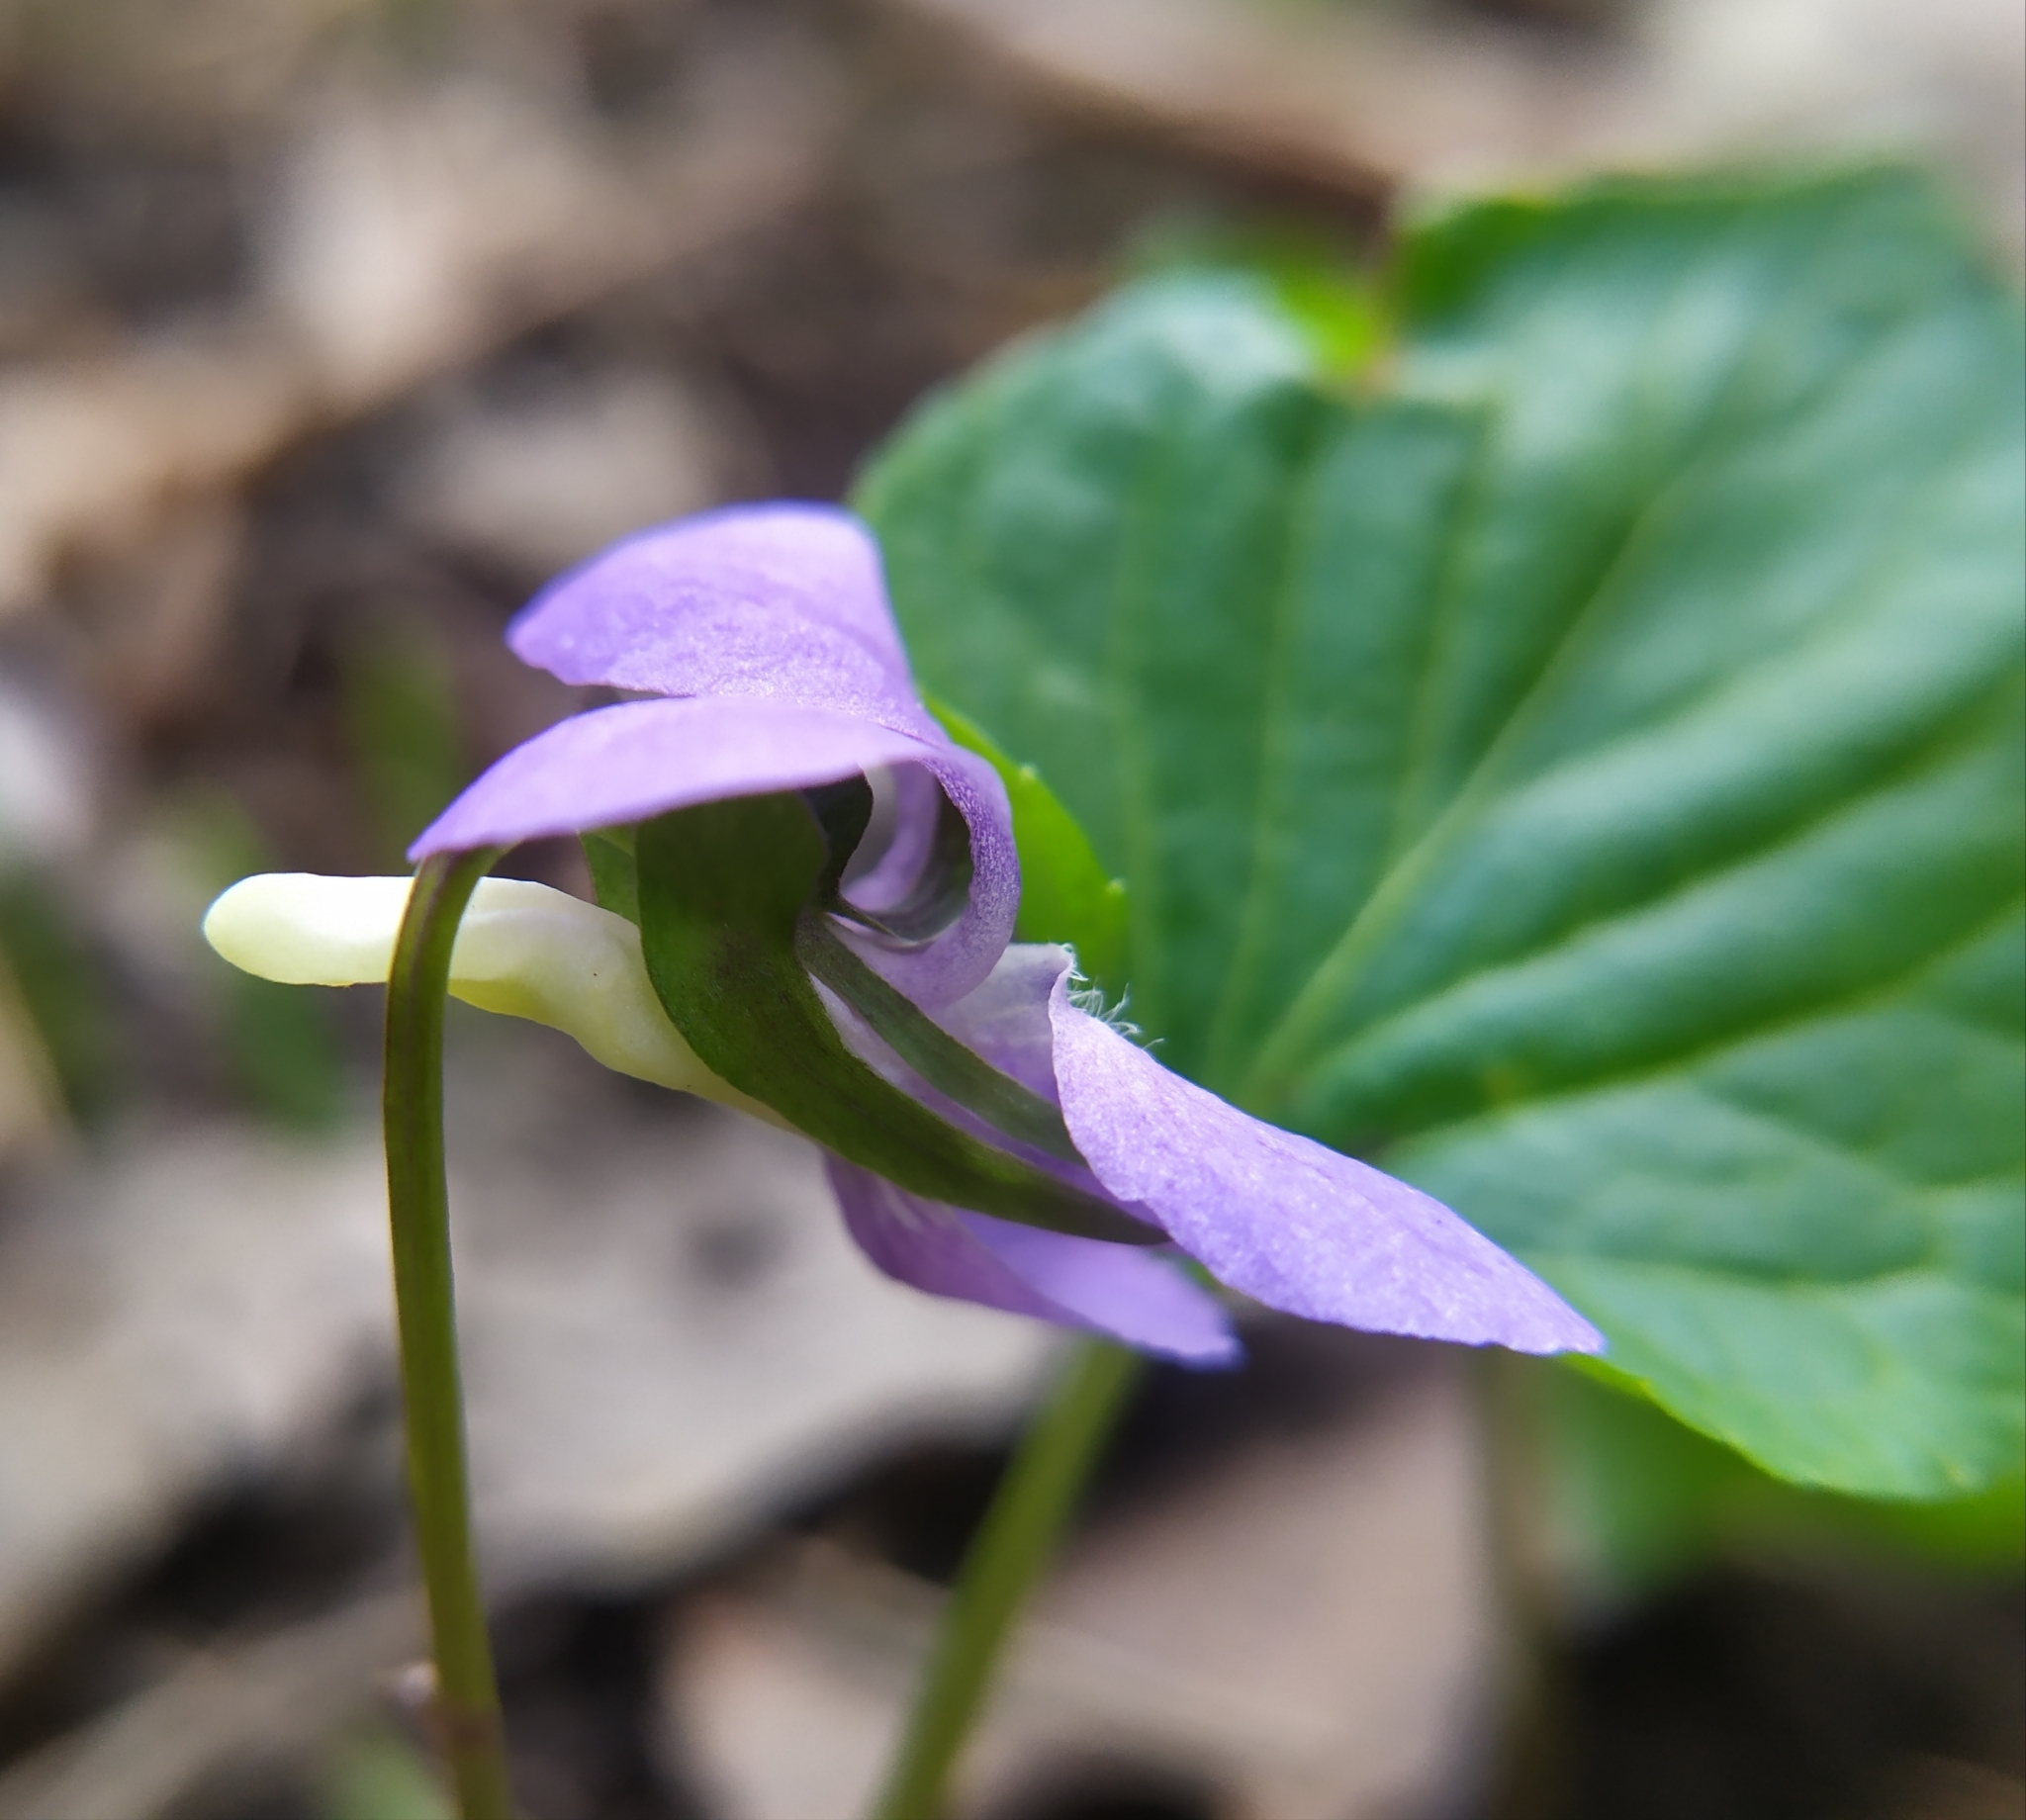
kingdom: Plantae
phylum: Tracheophyta
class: Magnoliopsida
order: Malpighiales
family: Violaceae
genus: Viola
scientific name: Viola riviniana
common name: Common dog-violet
